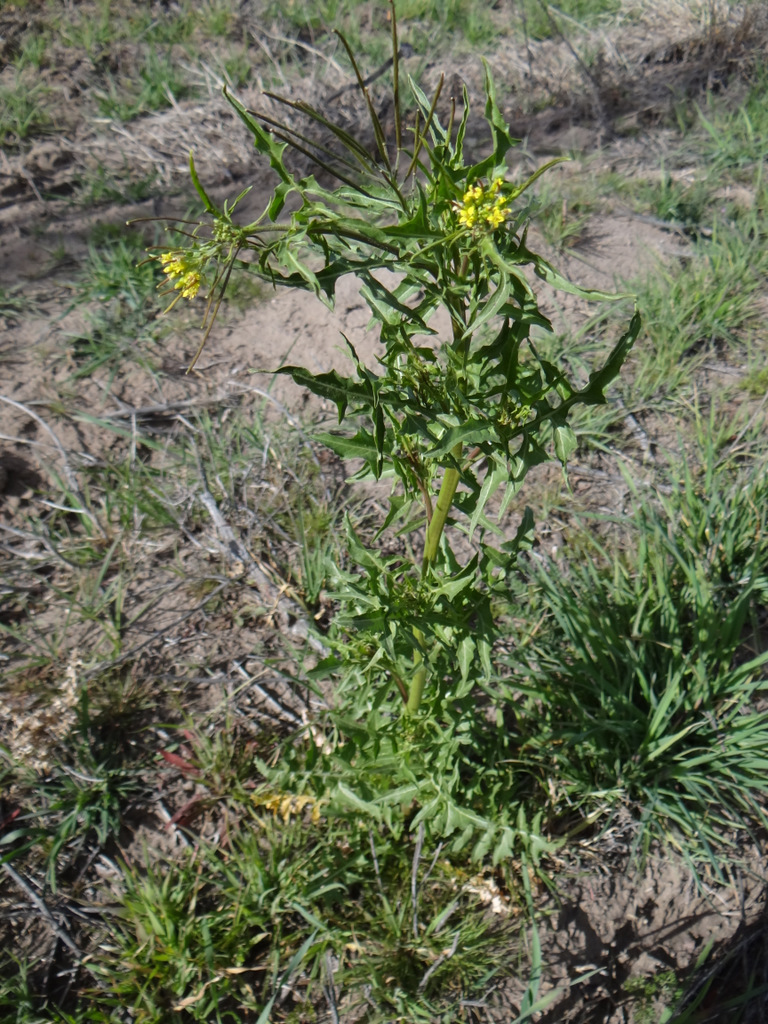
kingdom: Plantae
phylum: Tracheophyta
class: Magnoliopsida
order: Brassicales
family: Brassicaceae
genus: Sisymbrium
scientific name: Sisymbrium irio
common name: London rocket
